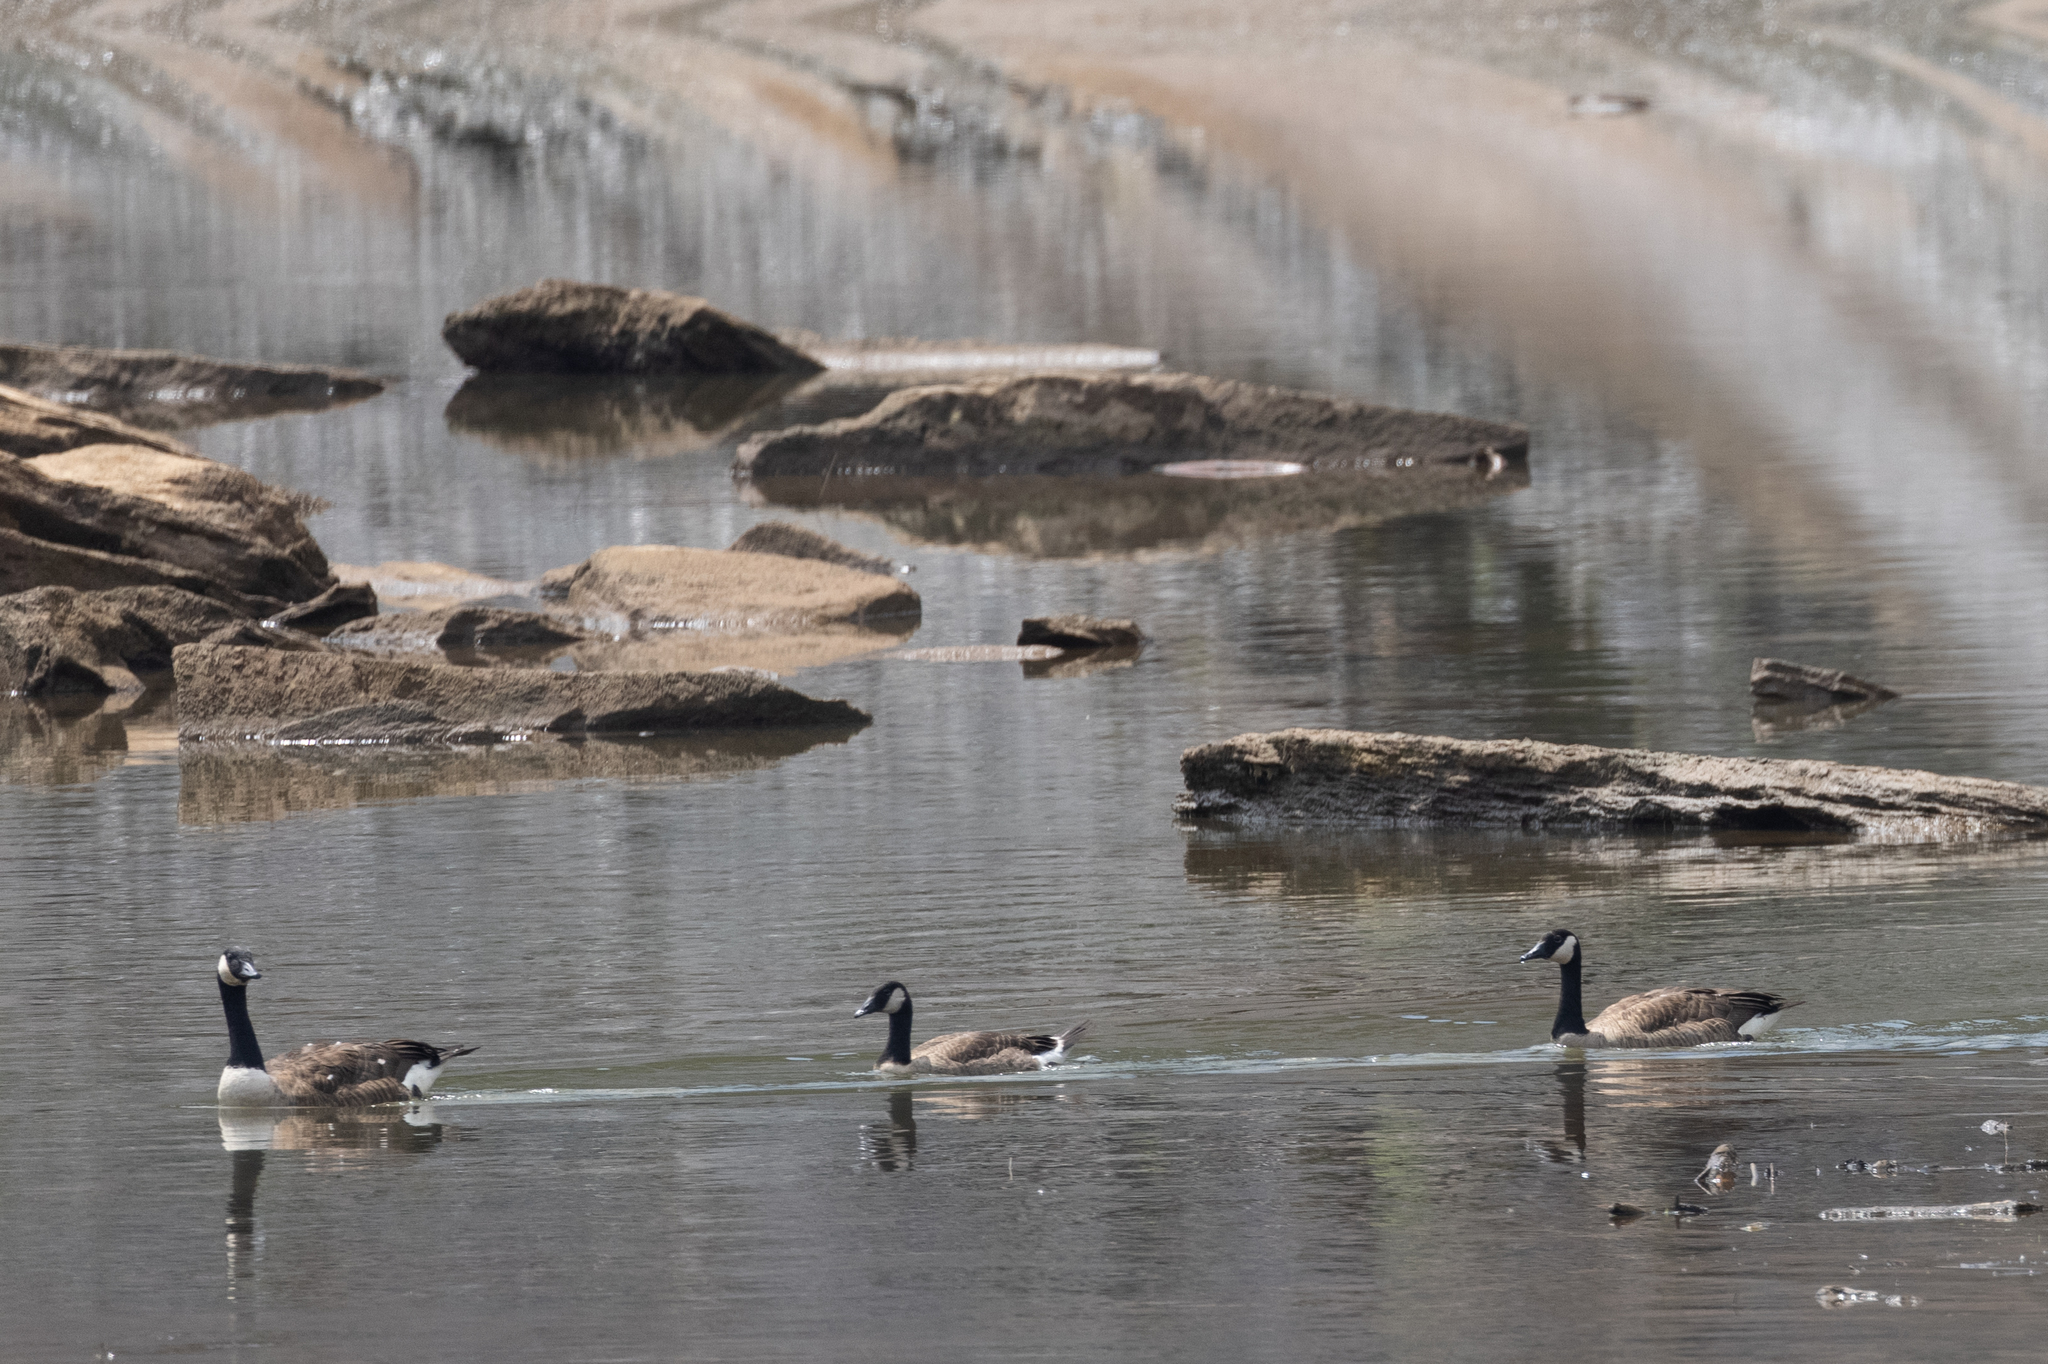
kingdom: Animalia
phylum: Chordata
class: Aves
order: Anseriformes
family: Anatidae
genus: Branta
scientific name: Branta canadensis
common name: Canada goose
